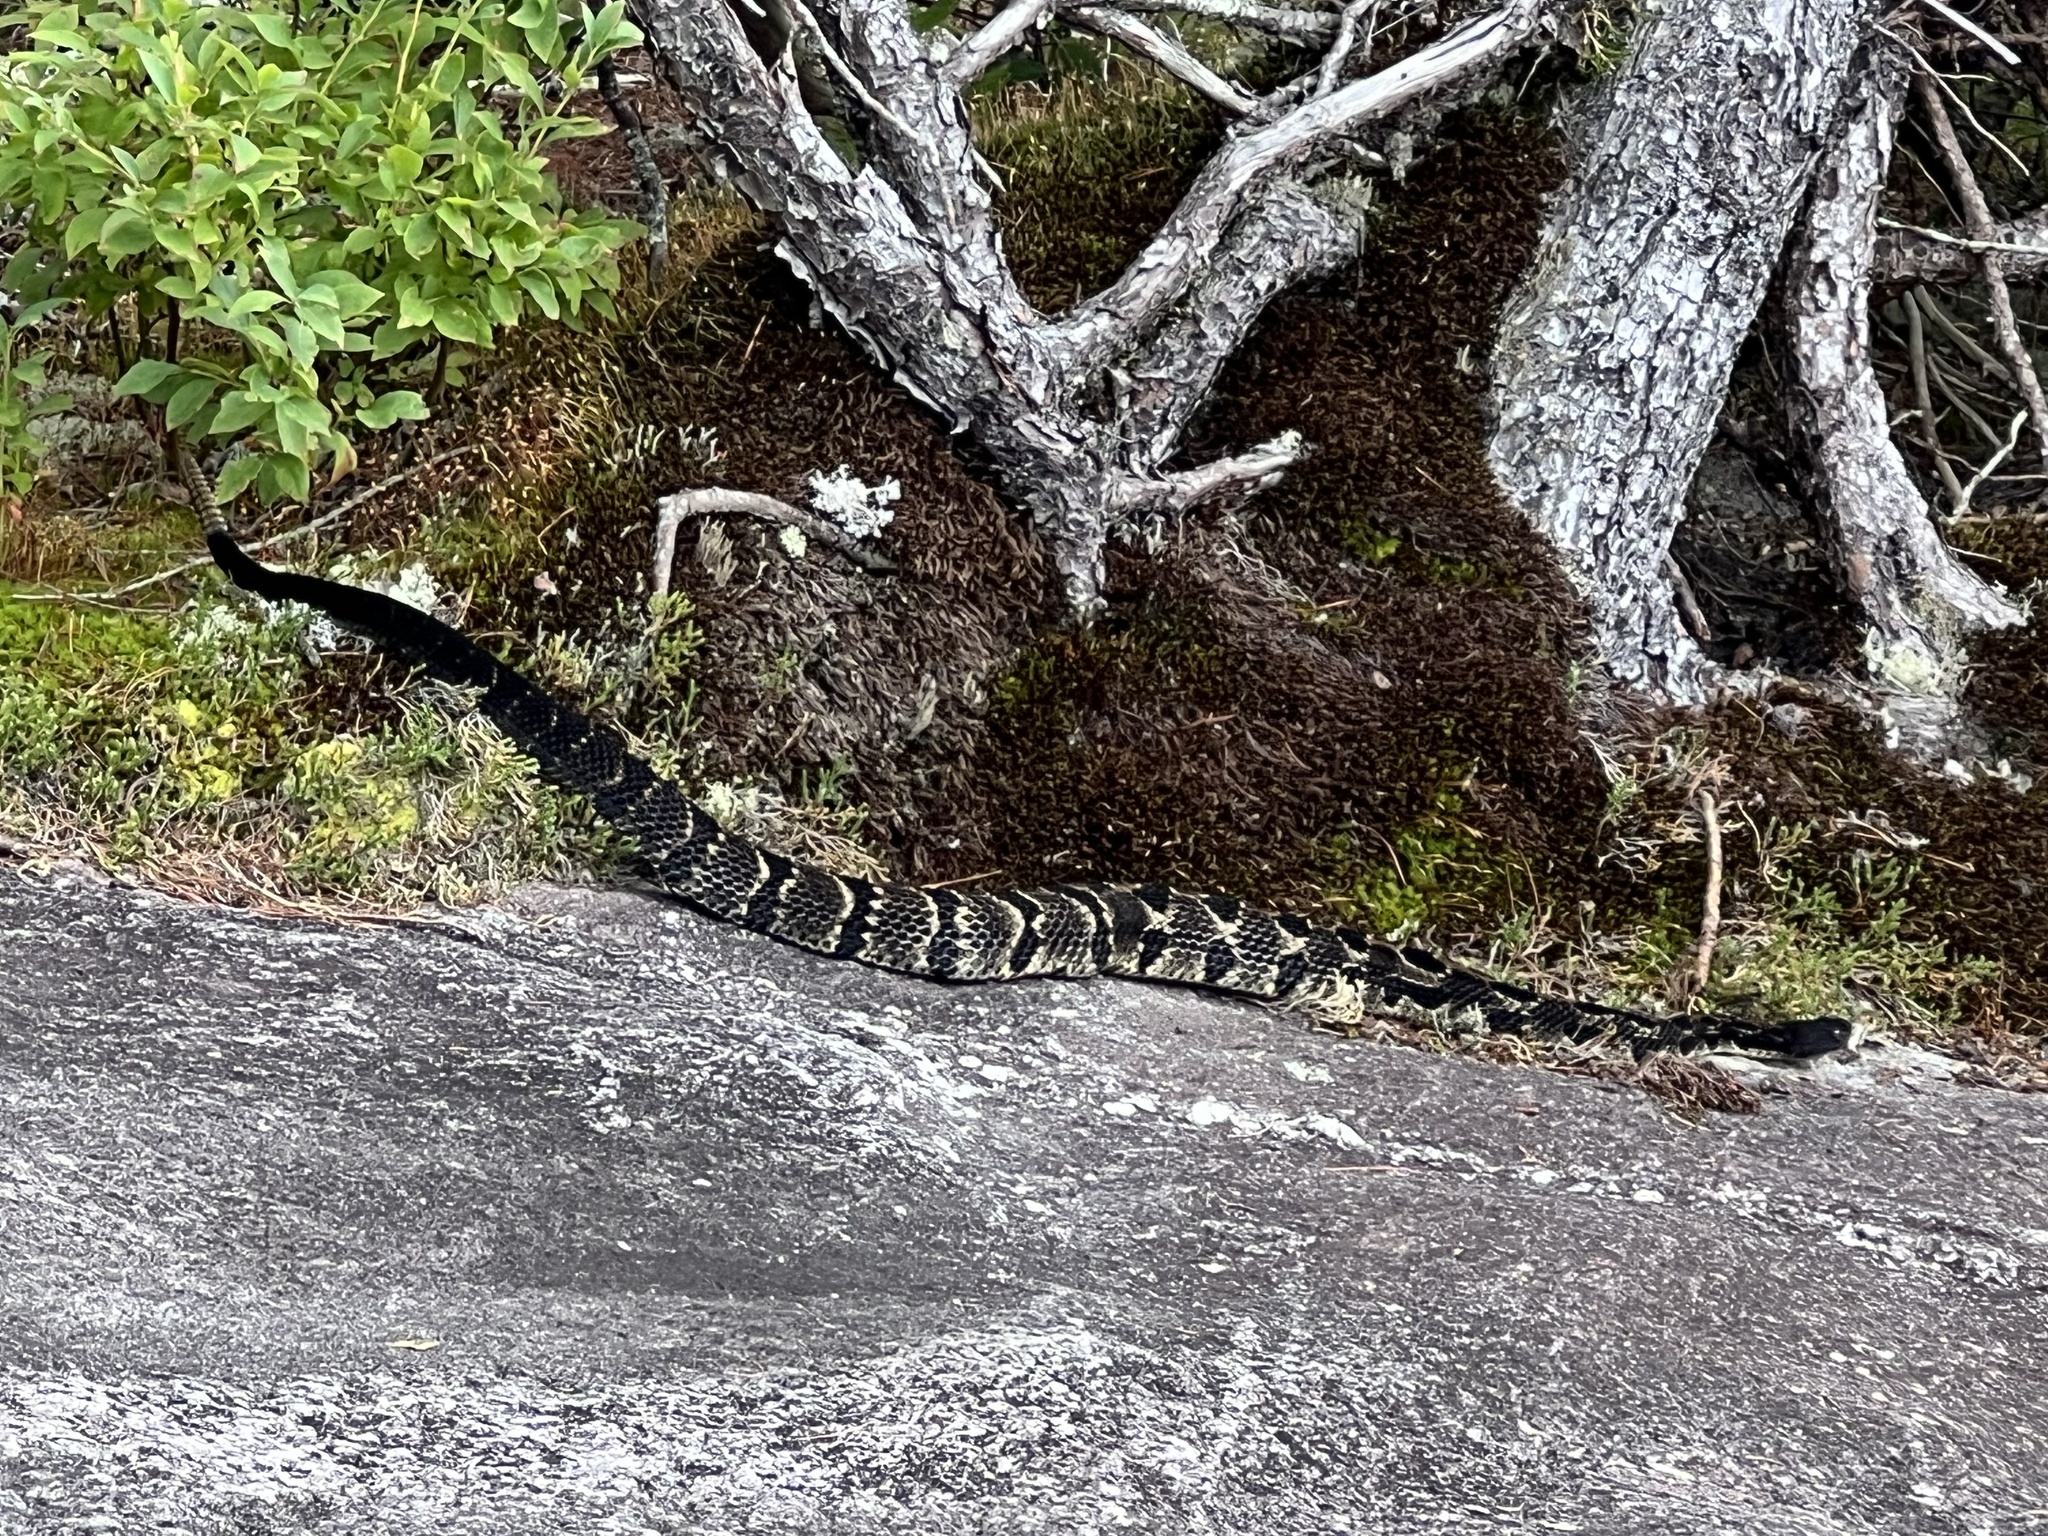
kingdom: Animalia
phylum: Chordata
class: Squamata
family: Viperidae
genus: Crotalus
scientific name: Crotalus horridus
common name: Timber rattlesnake
